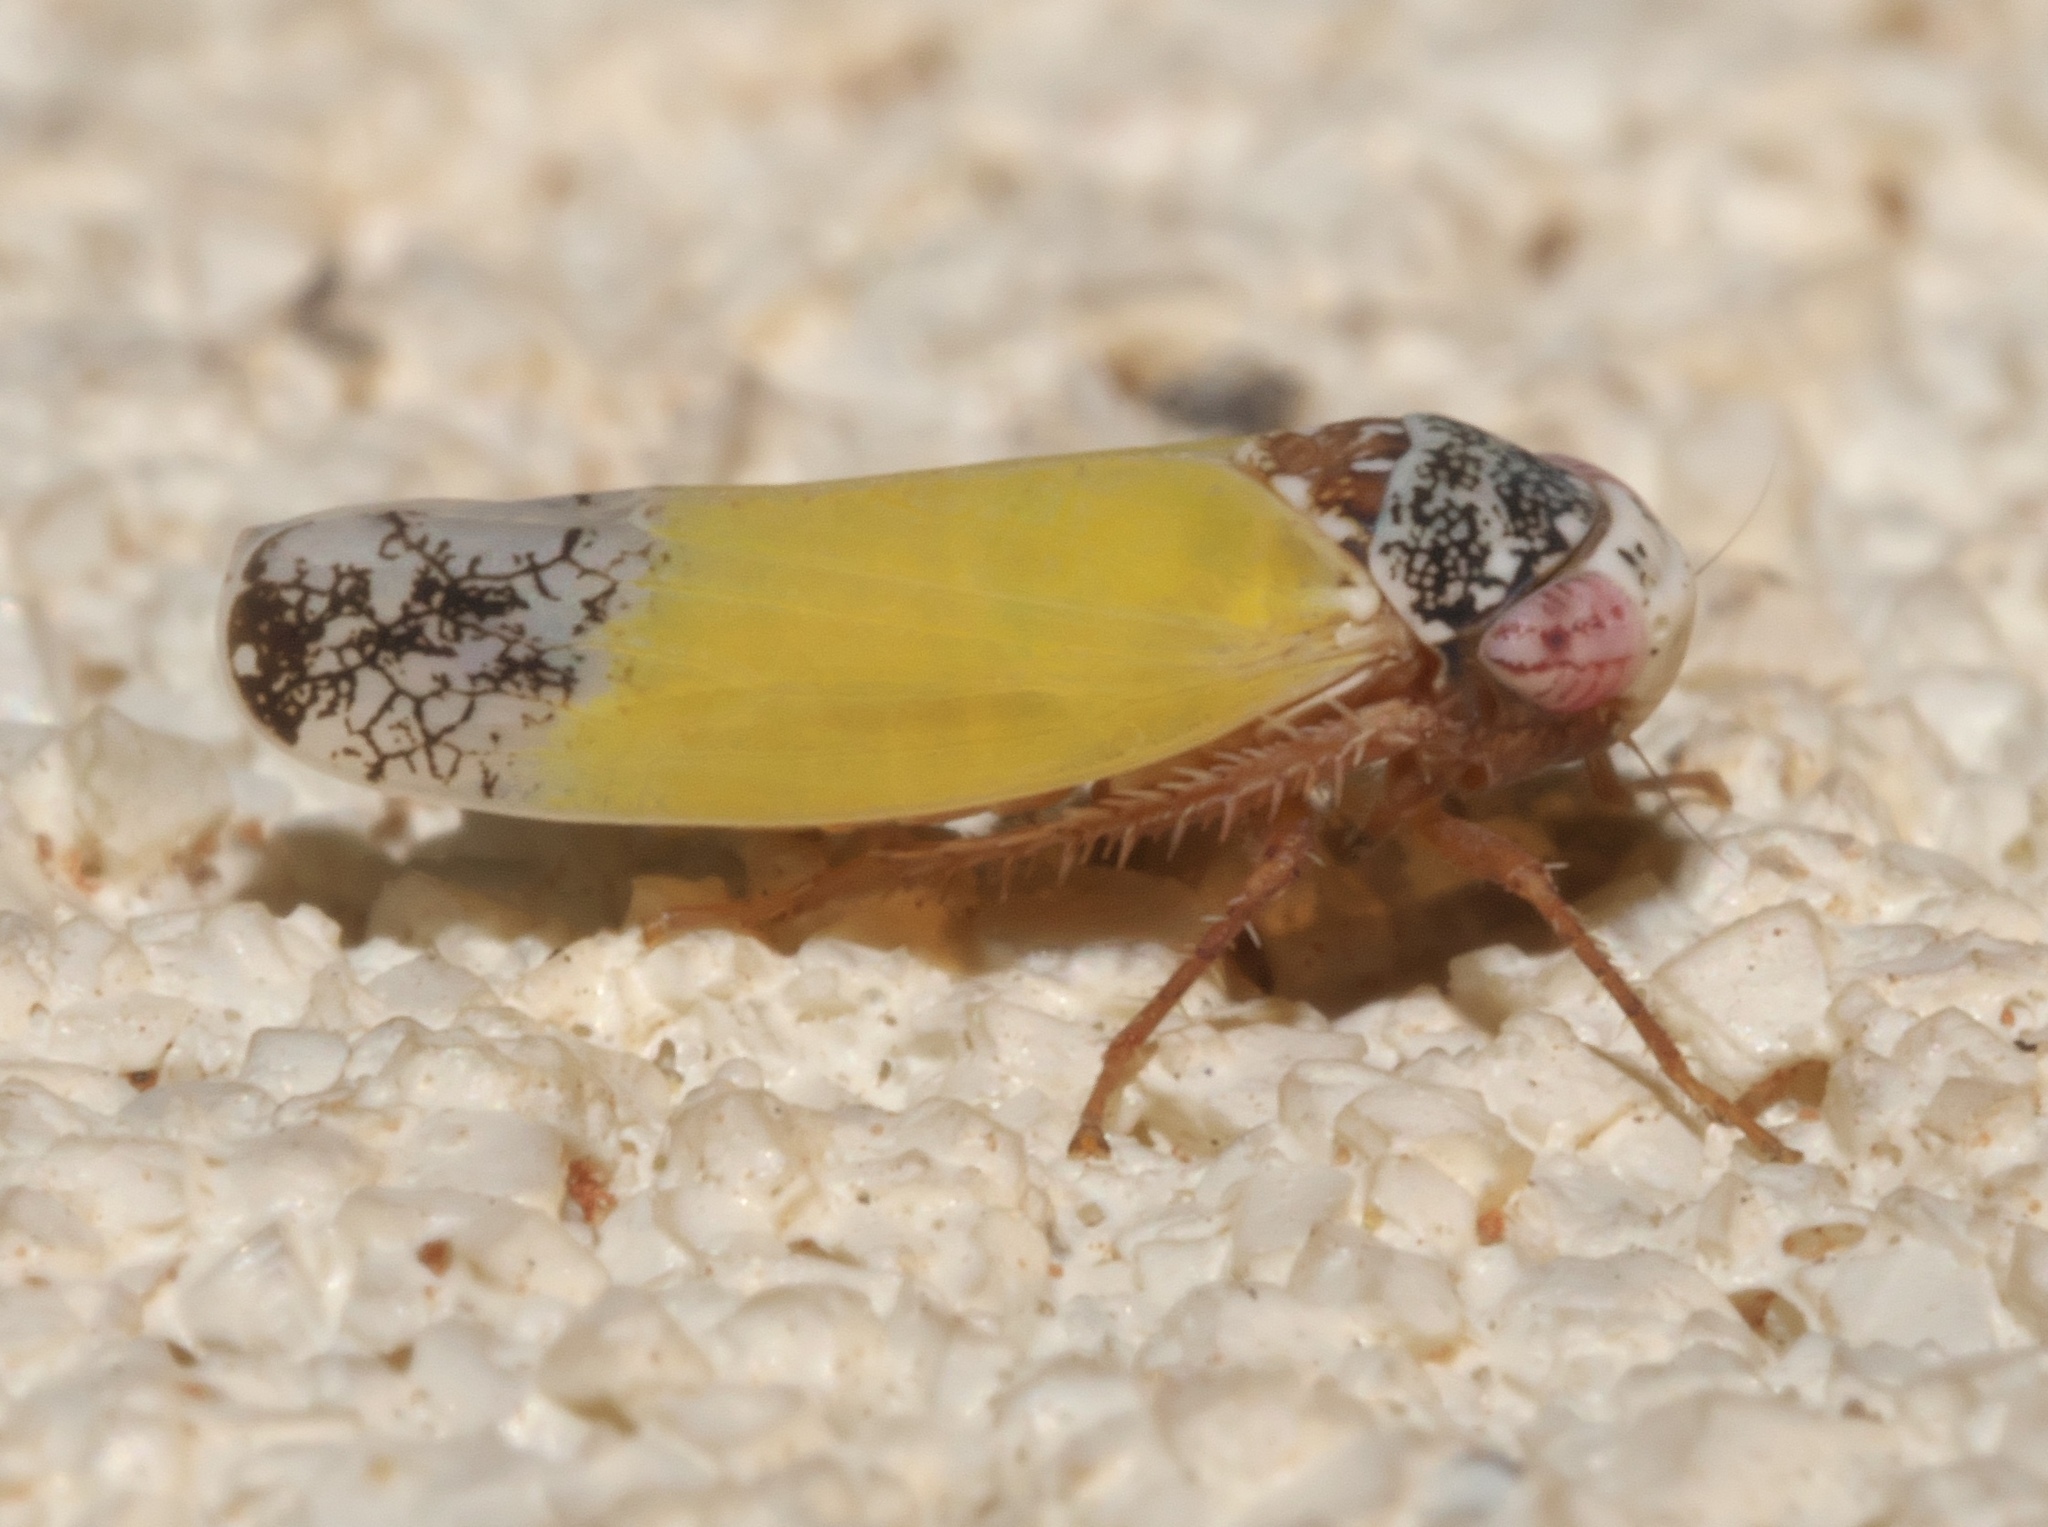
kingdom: Animalia
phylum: Arthropoda
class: Insecta
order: Hemiptera
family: Cicadellidae
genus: Norvellina
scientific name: Norvellina bicolorata
